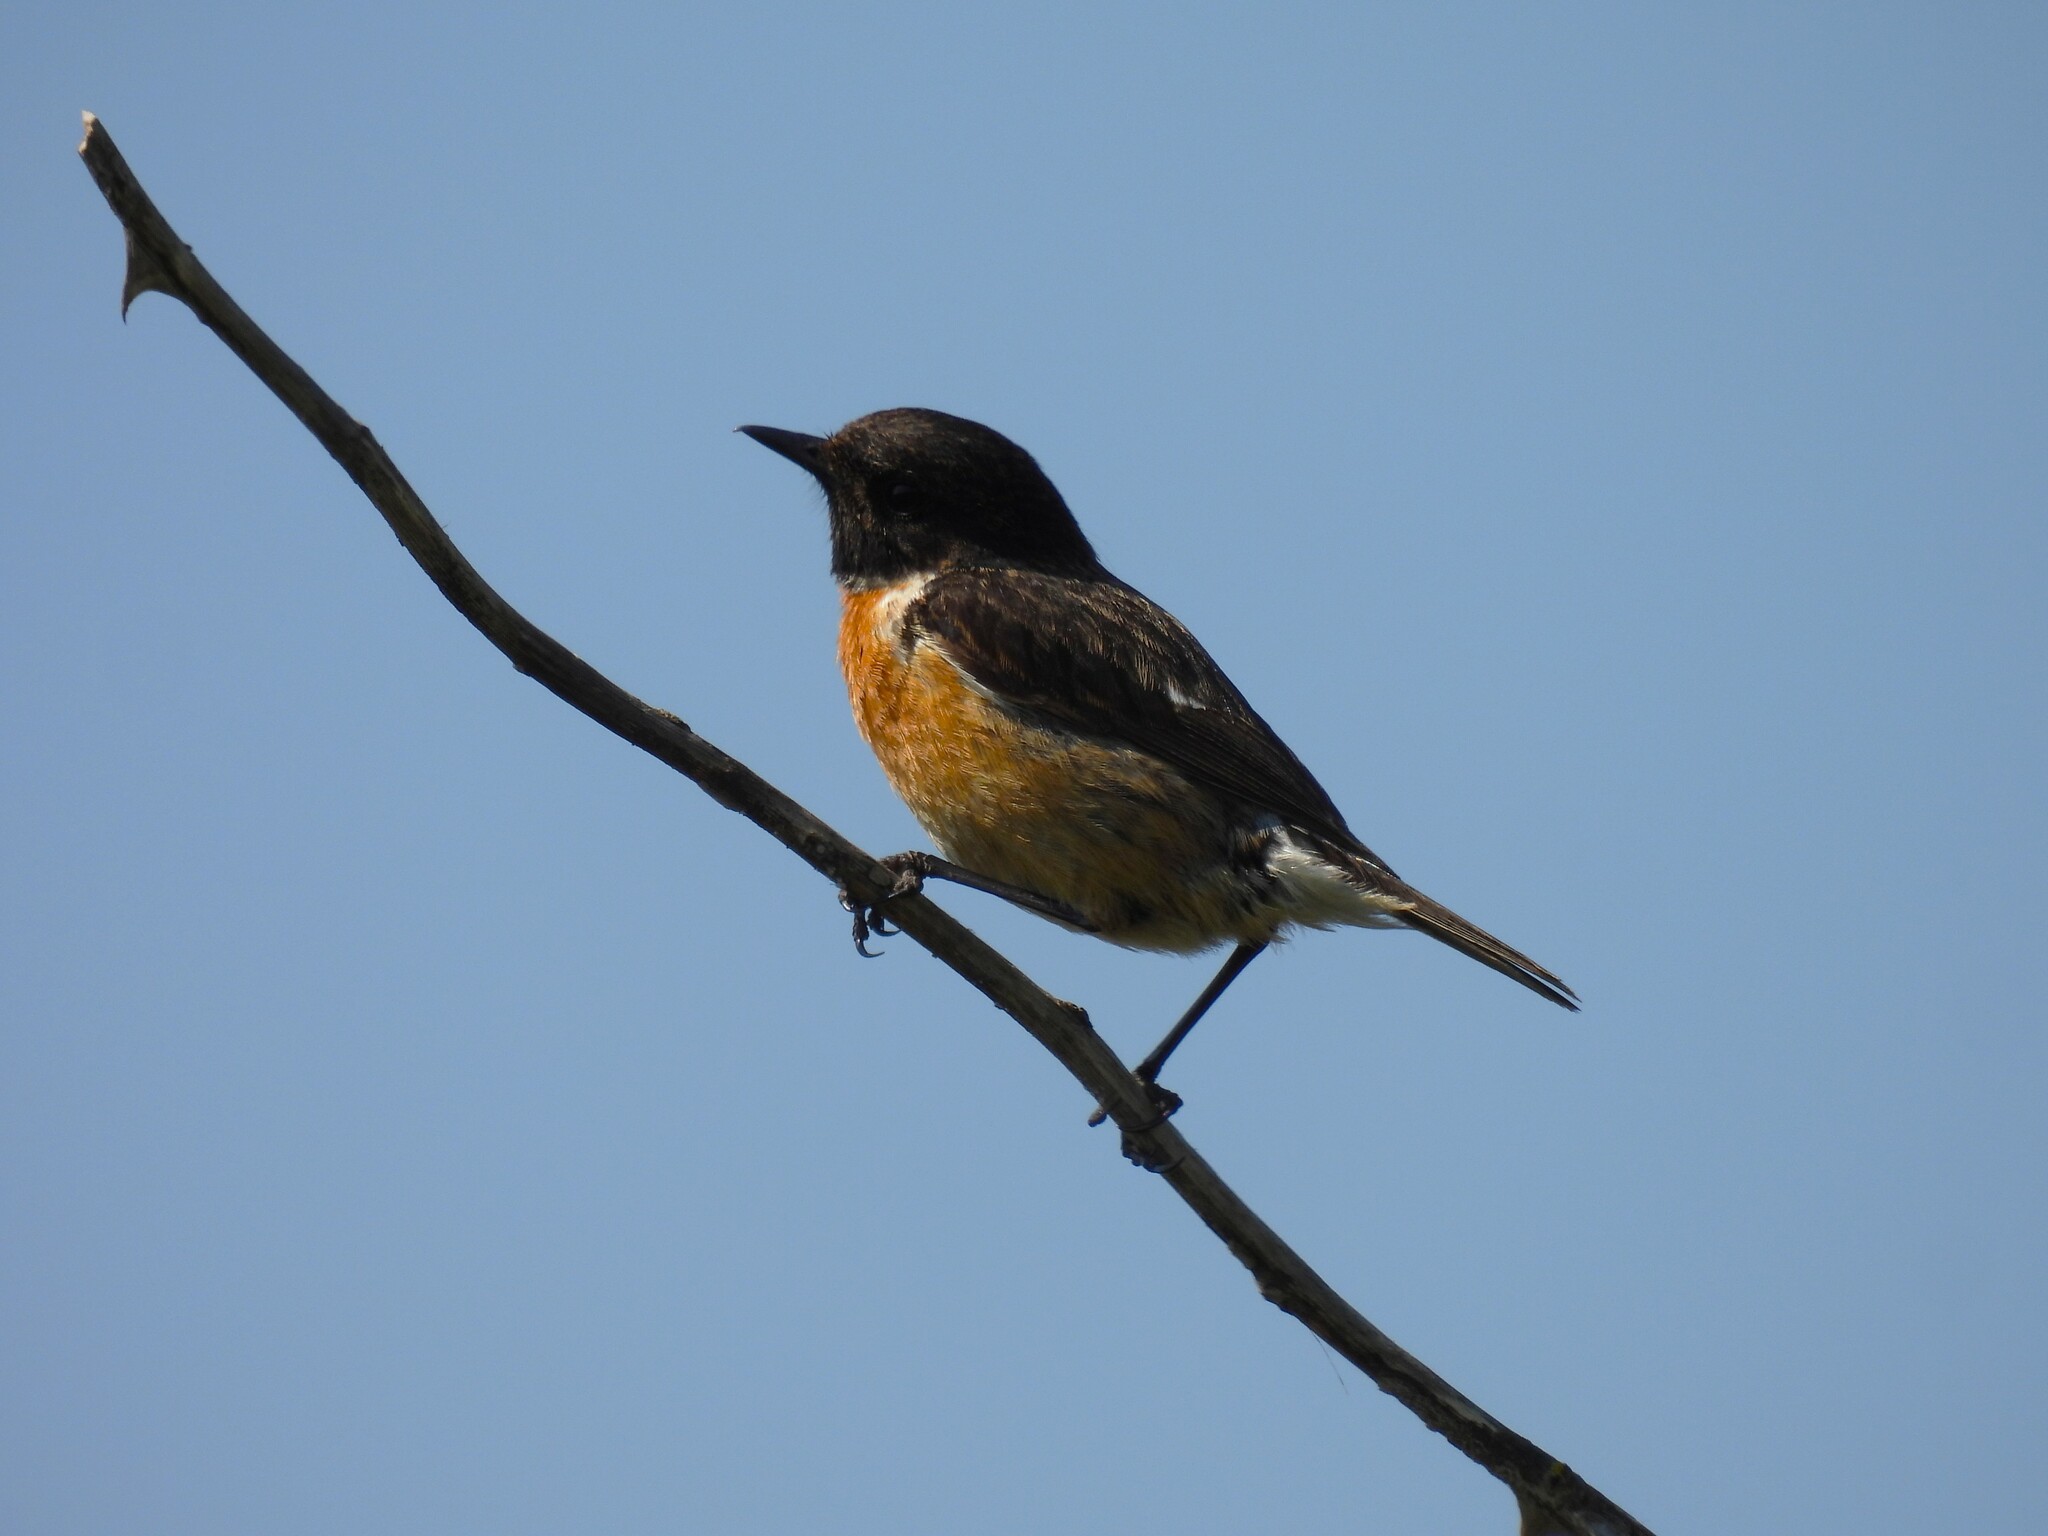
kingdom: Animalia
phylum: Chordata
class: Aves
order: Passeriformes
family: Muscicapidae
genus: Saxicola
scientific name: Saxicola rubicola
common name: European stonechat
